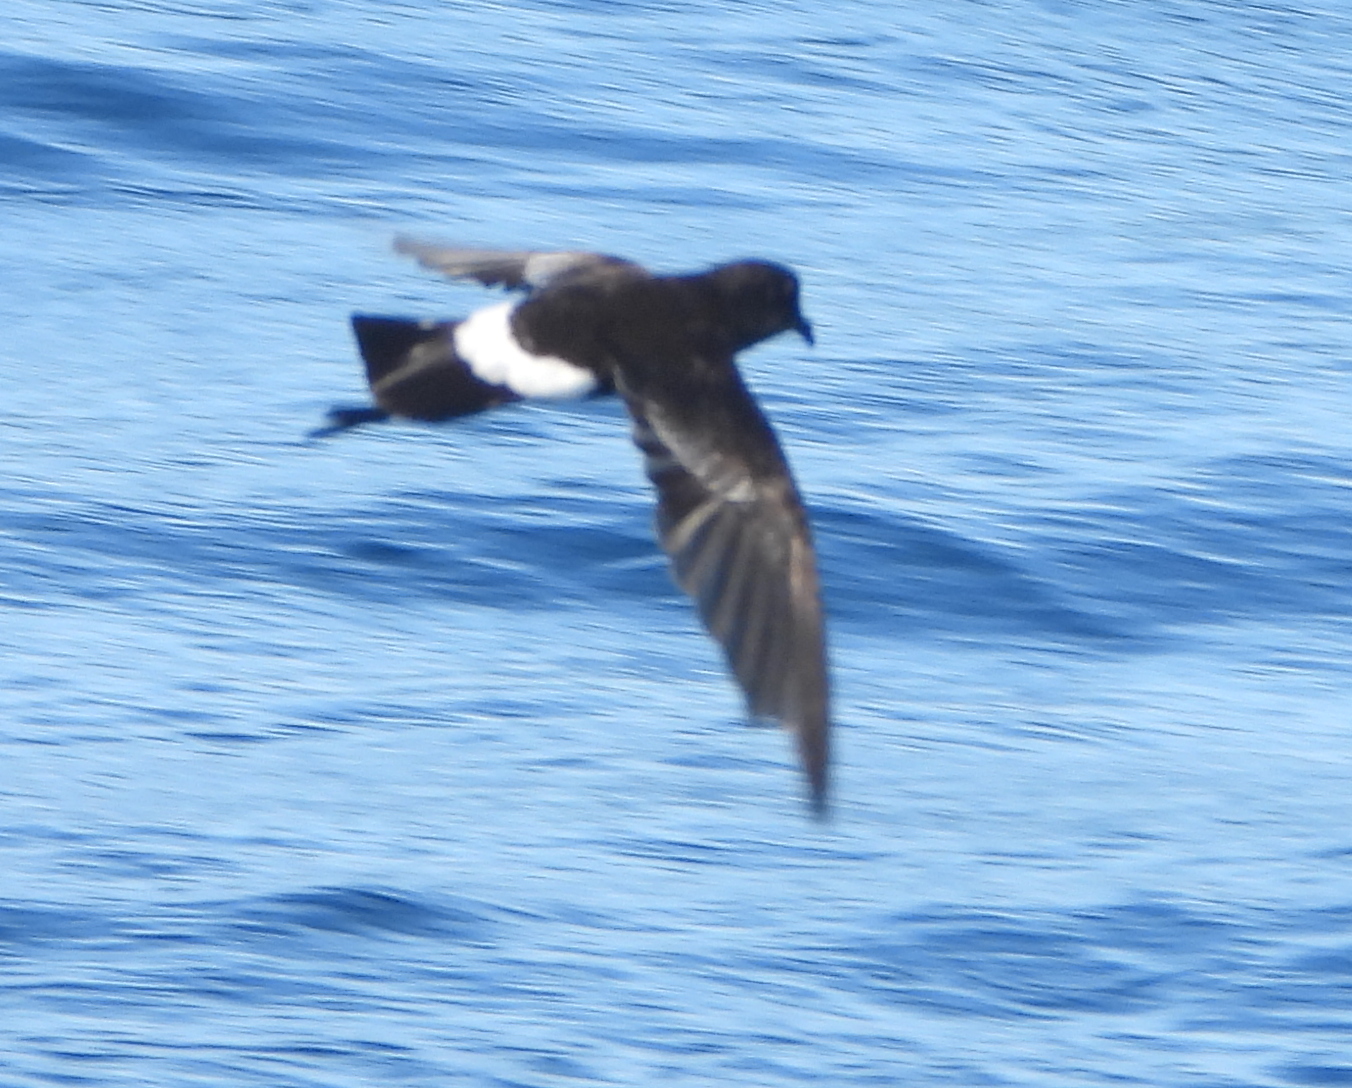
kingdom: Animalia
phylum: Chordata
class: Aves
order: Procellariiformes
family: Hydrobatidae
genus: Oceanites
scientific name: Oceanites oceanicus
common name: Wilson's storm petrel
